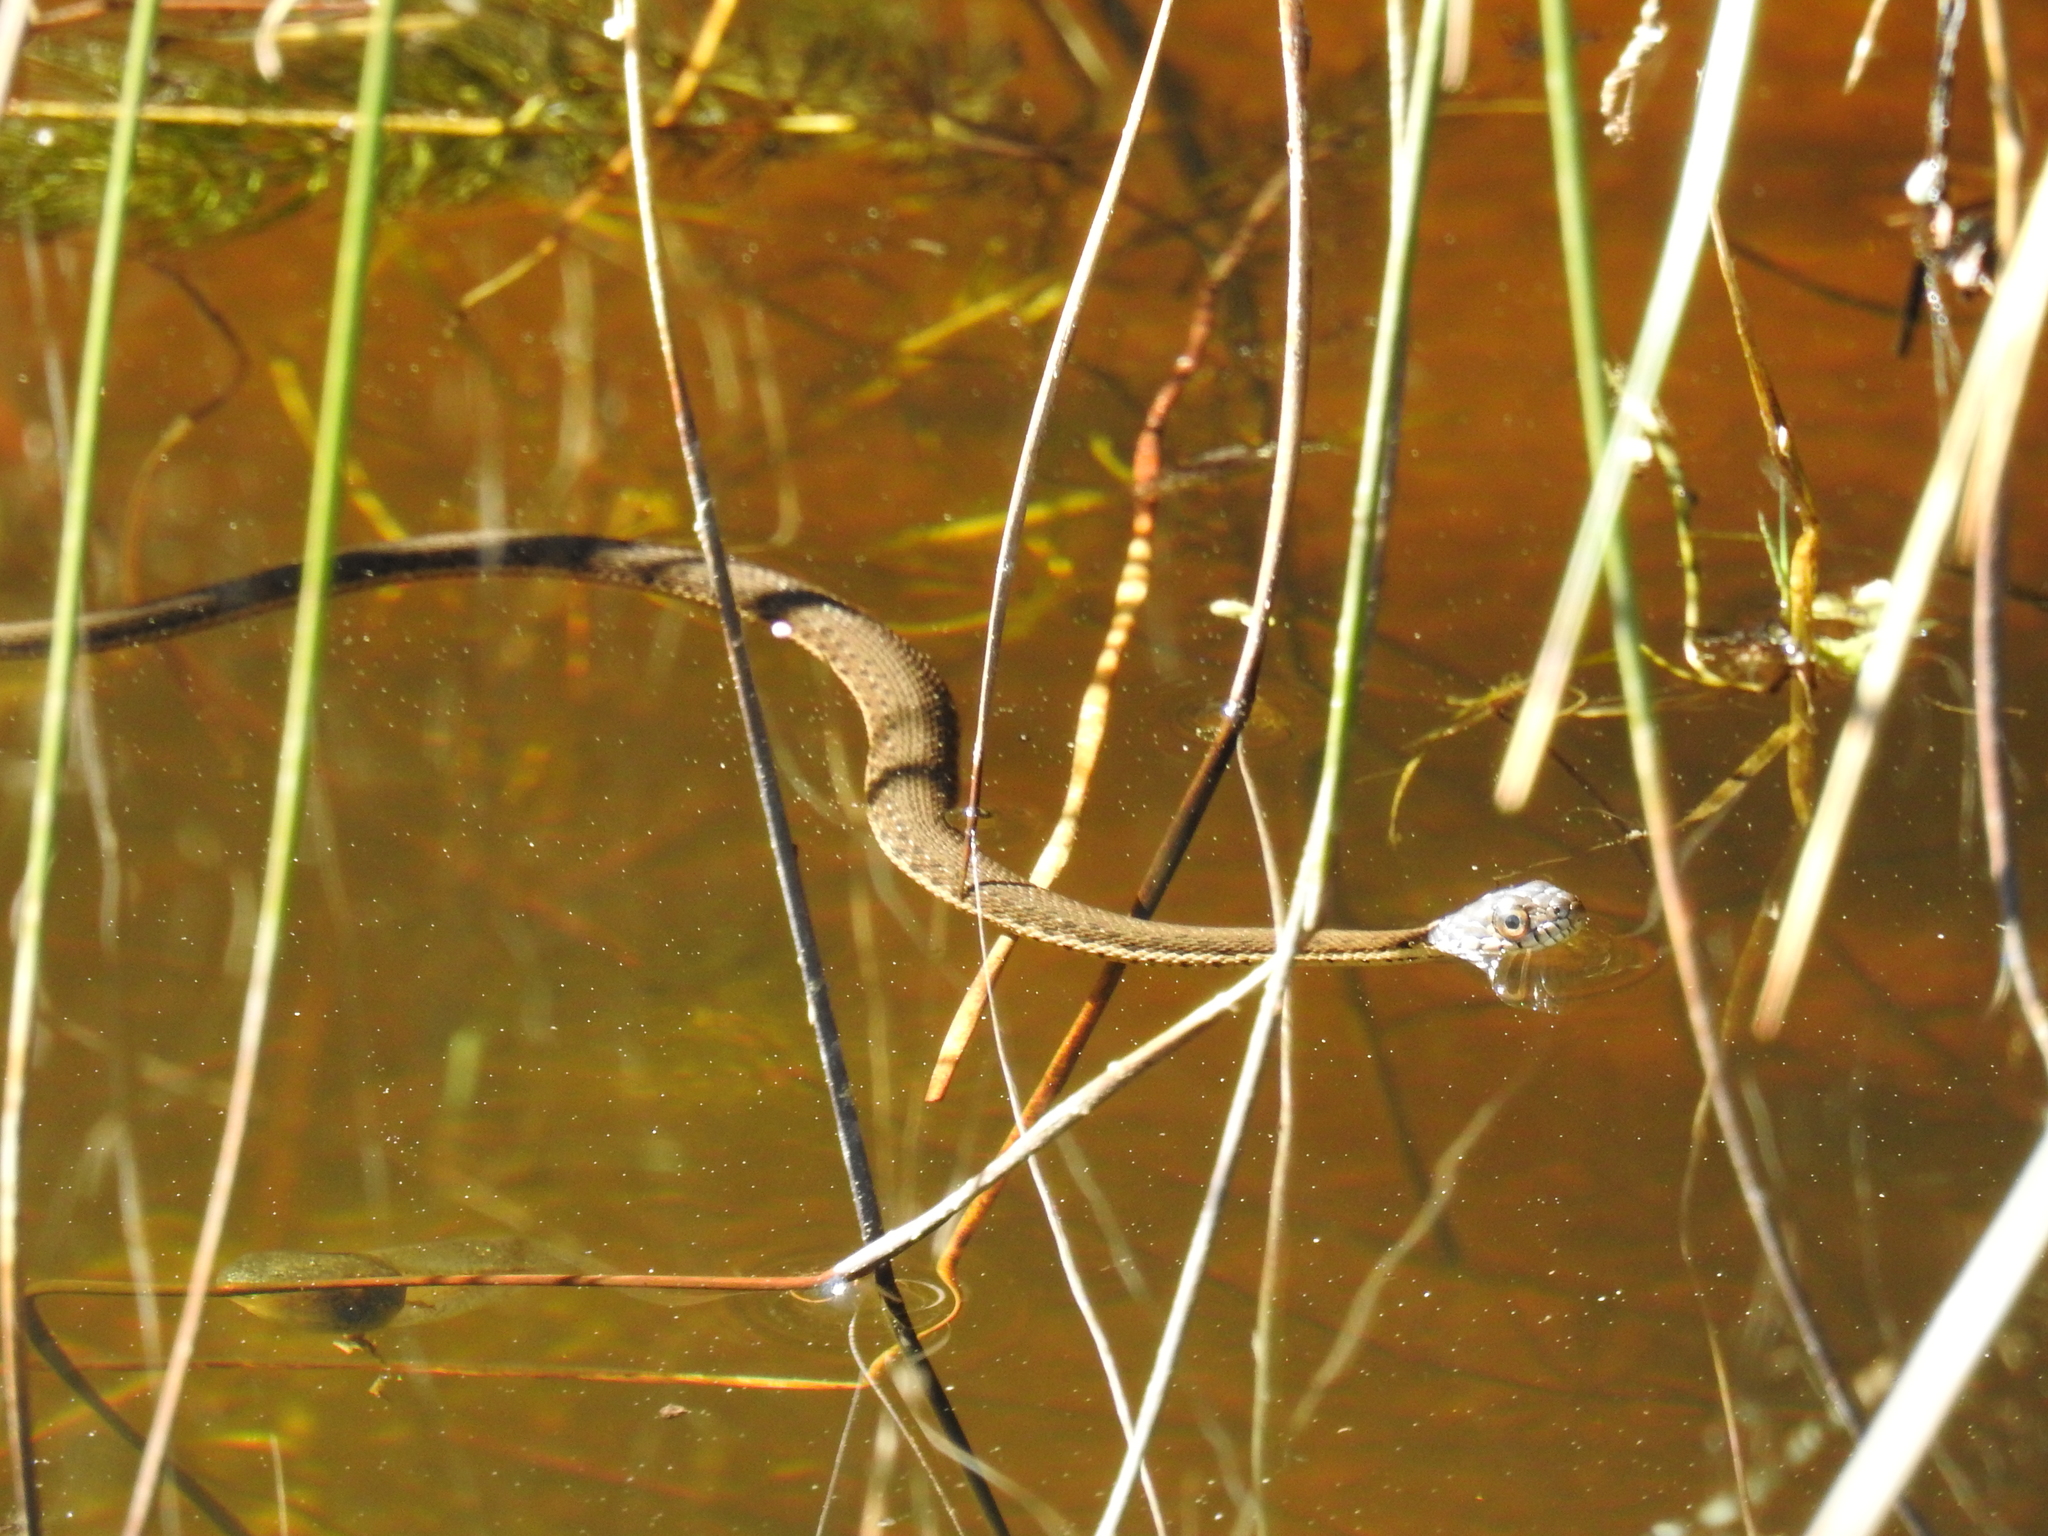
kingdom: Animalia
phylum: Chordata
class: Squamata
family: Colubridae
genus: Thamnophis
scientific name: Thamnophis hammondii
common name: Two-striped garter snake
